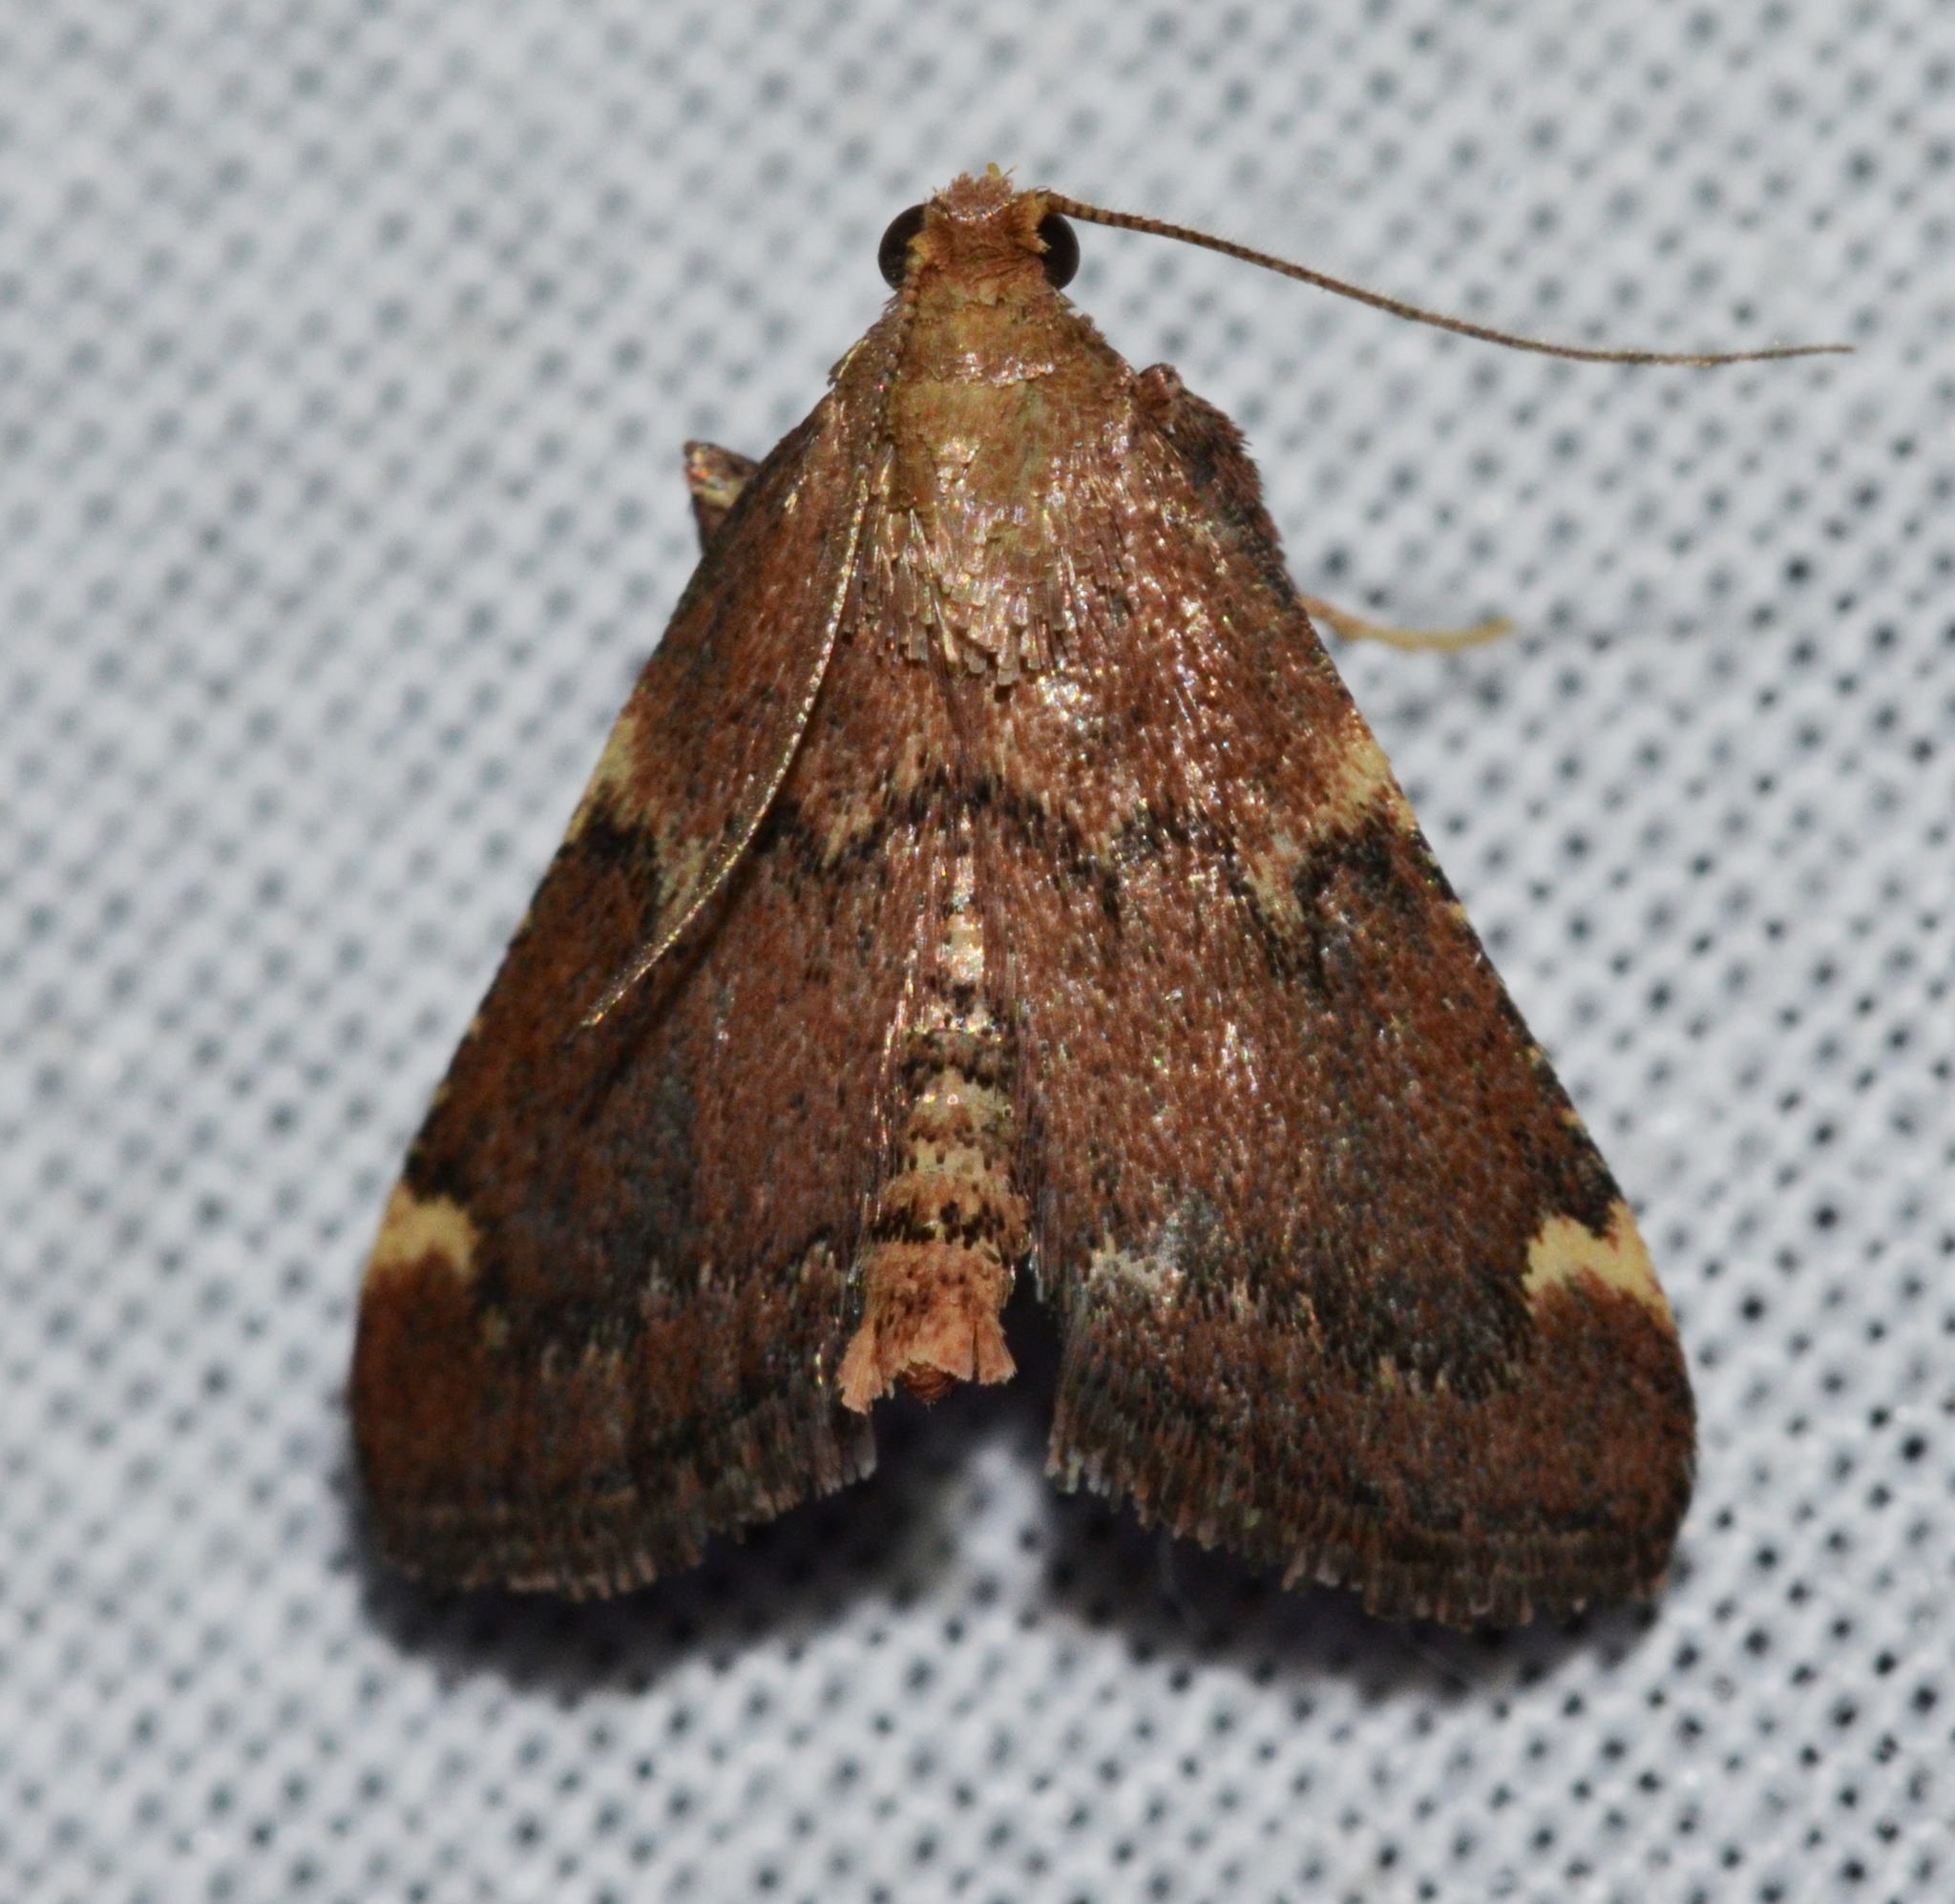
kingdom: Animalia
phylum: Arthropoda
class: Insecta
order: Lepidoptera
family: Pyralidae
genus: Hypsopygia
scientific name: Hypsopygia intermedialis
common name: Red-shawled moth
